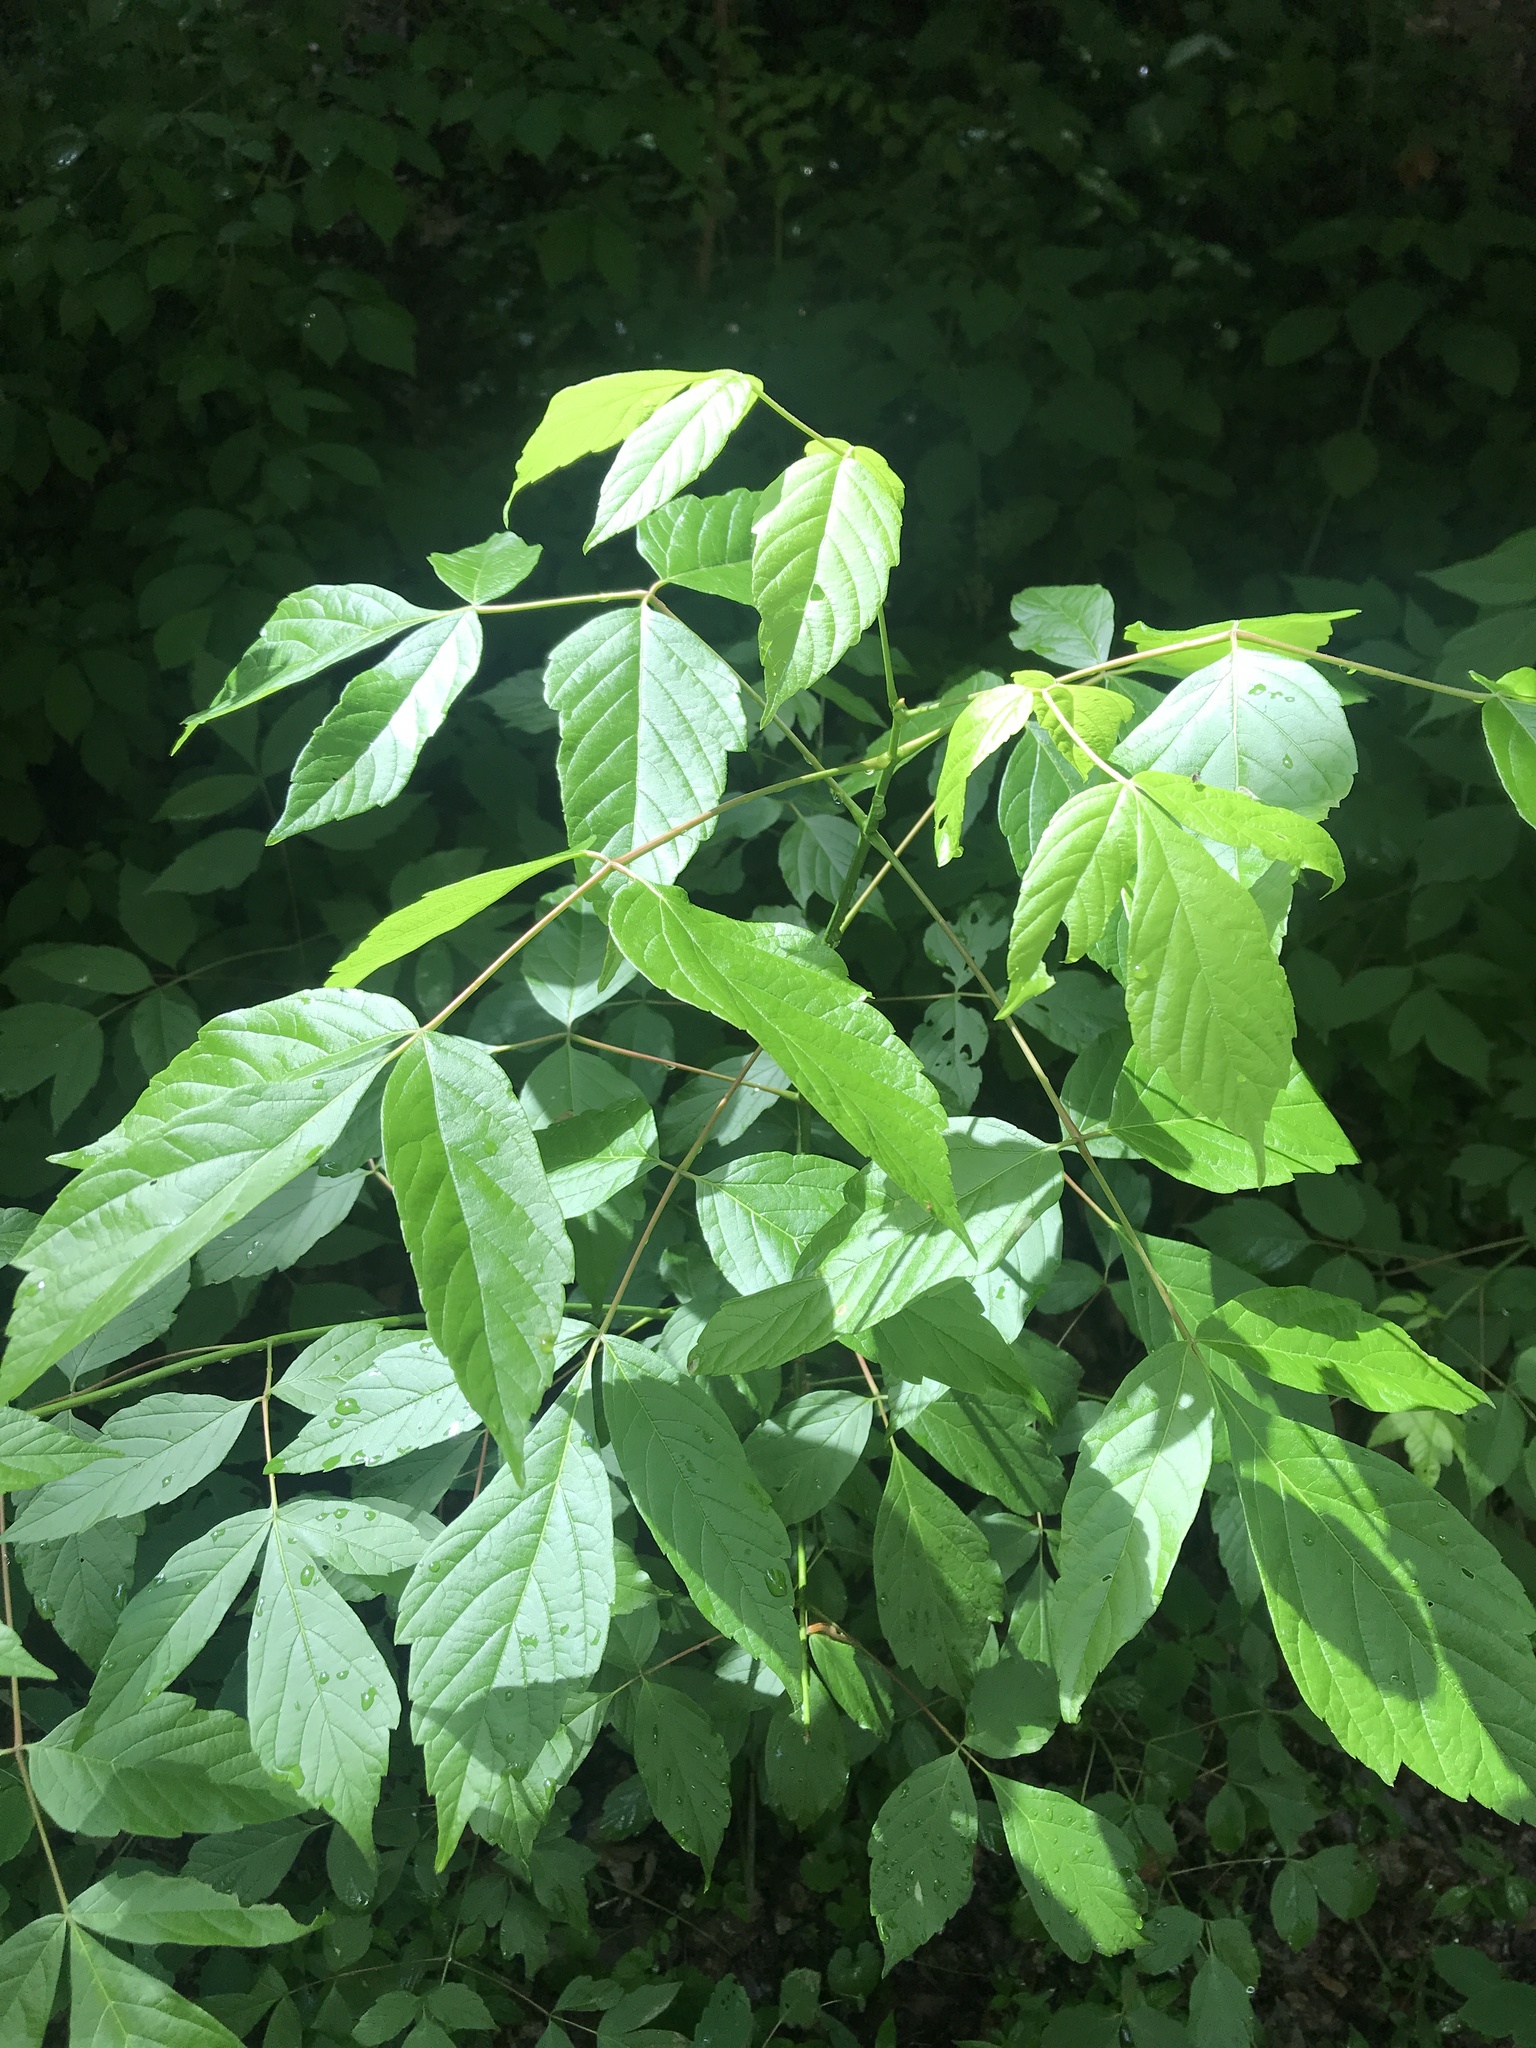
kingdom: Plantae
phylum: Tracheophyta
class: Magnoliopsida
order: Sapindales
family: Sapindaceae
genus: Acer
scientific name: Acer negundo
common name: Ashleaf maple
